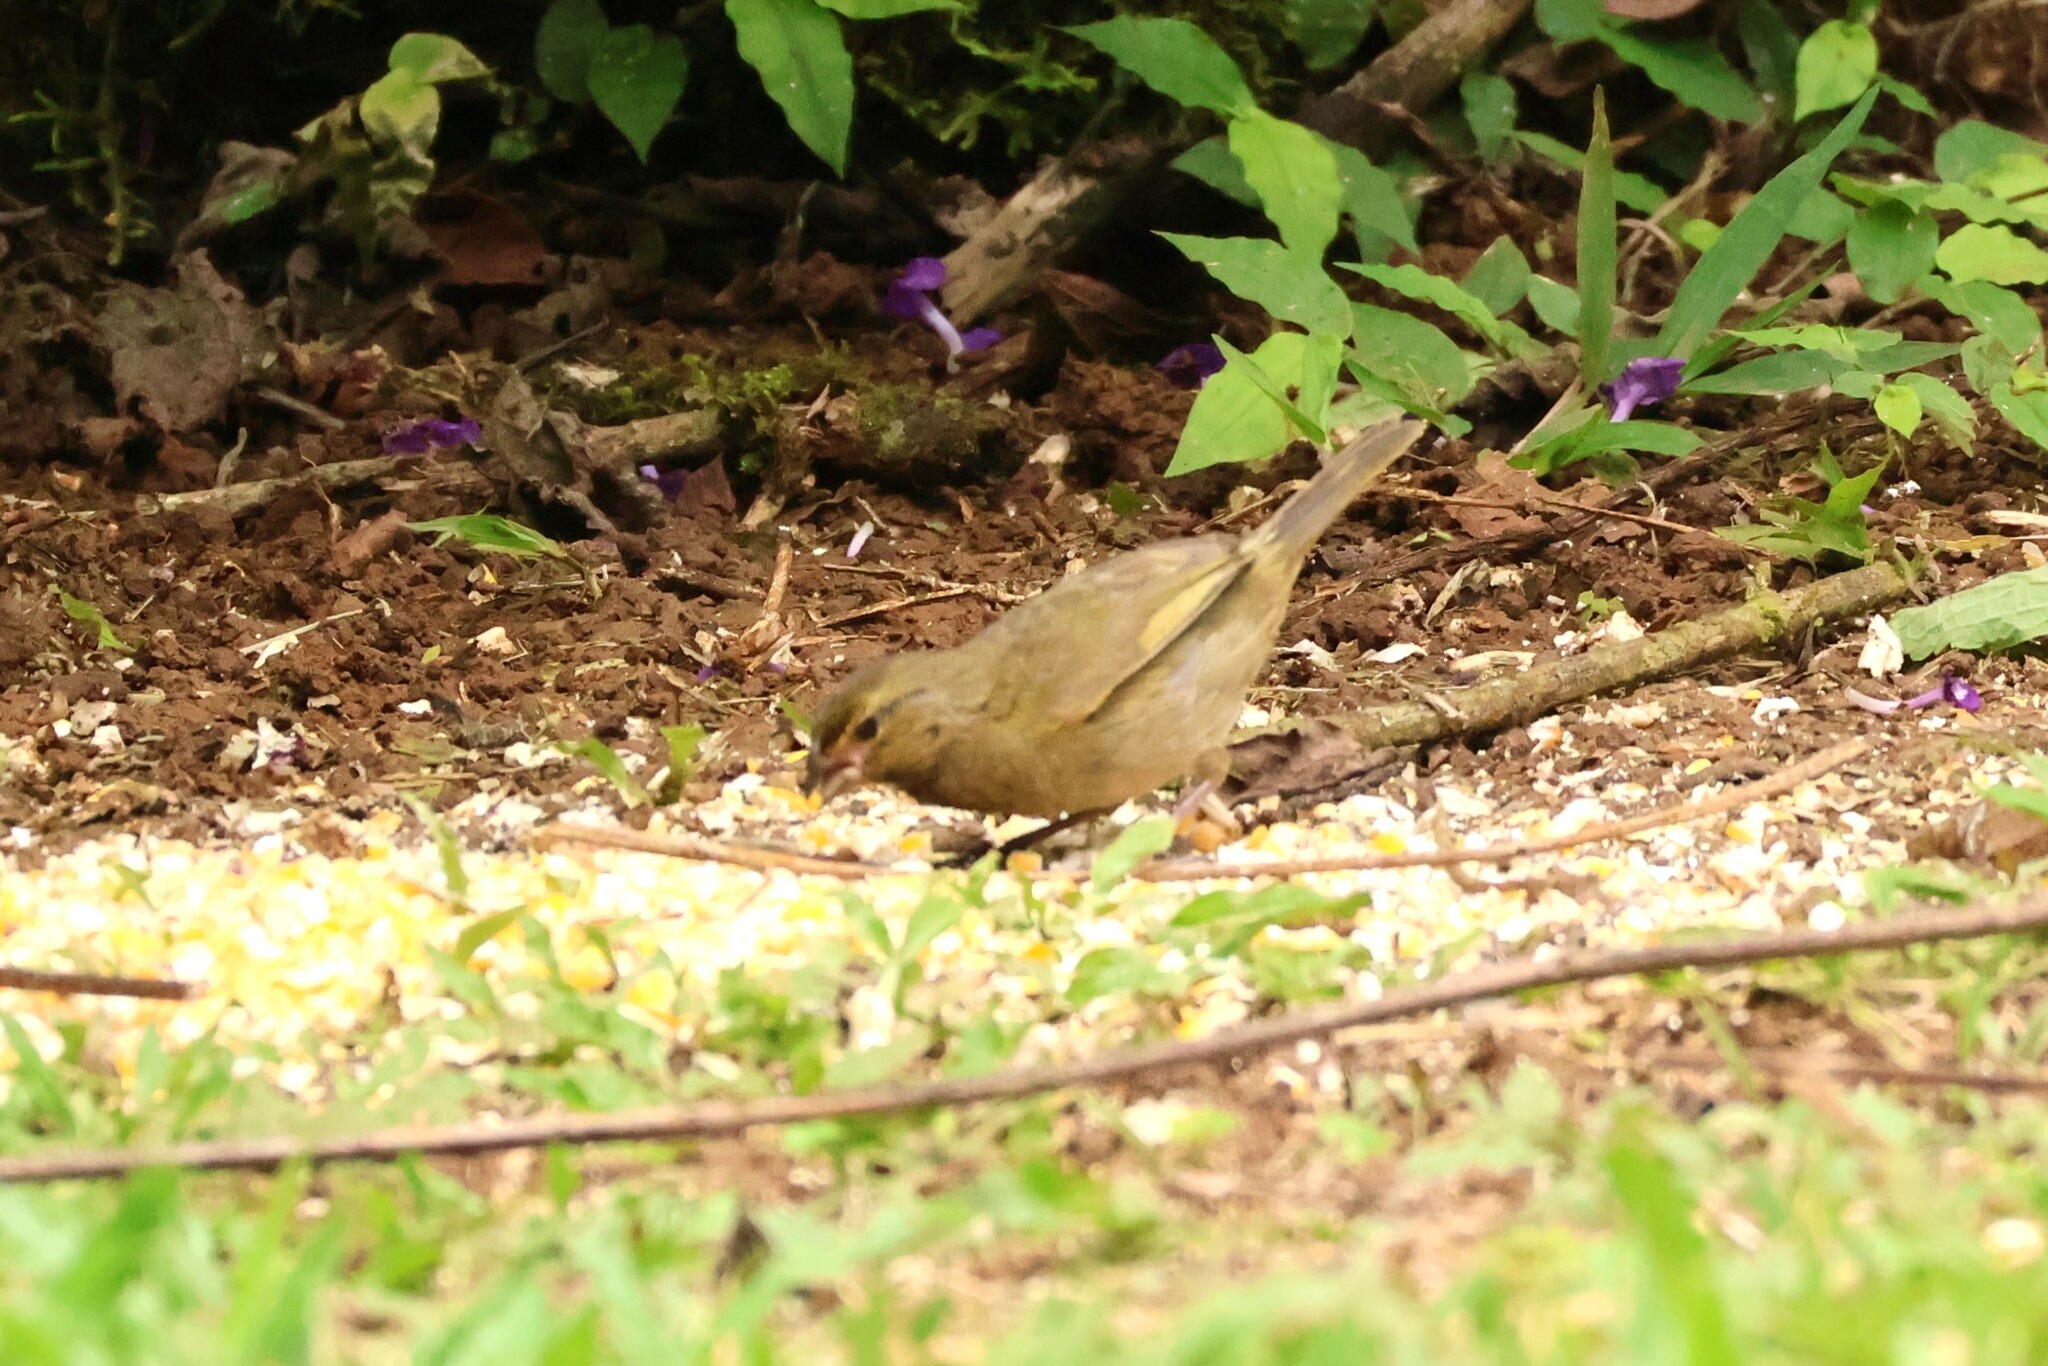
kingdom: Animalia
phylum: Chordata
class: Aves
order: Passeriformes
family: Thraupidae
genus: Tiaris
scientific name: Tiaris olivaceus
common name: Yellow-faced grassquit
